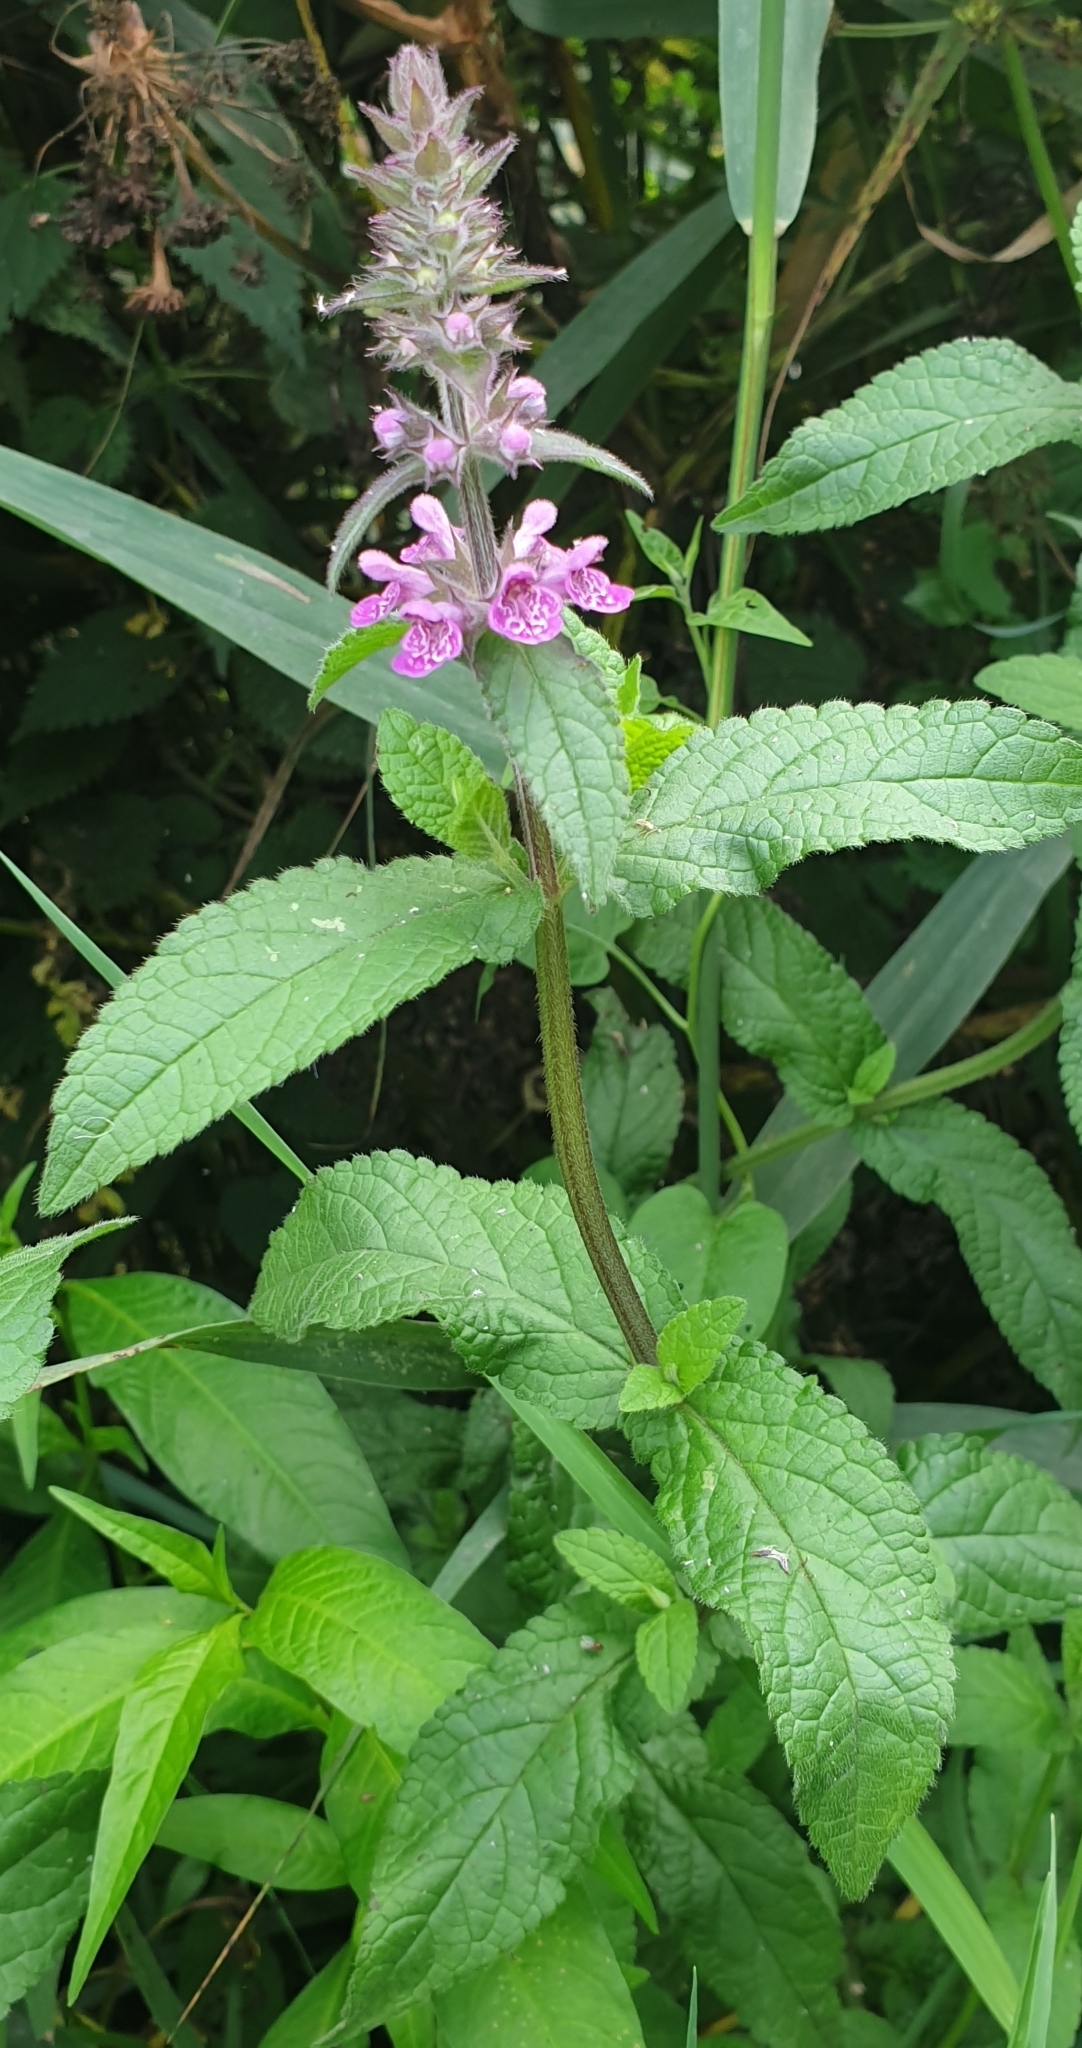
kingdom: Plantae
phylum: Tracheophyta
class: Magnoliopsida
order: Lamiales
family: Lamiaceae
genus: Stachys
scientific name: Stachys palustris
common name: Marsh woundwort
